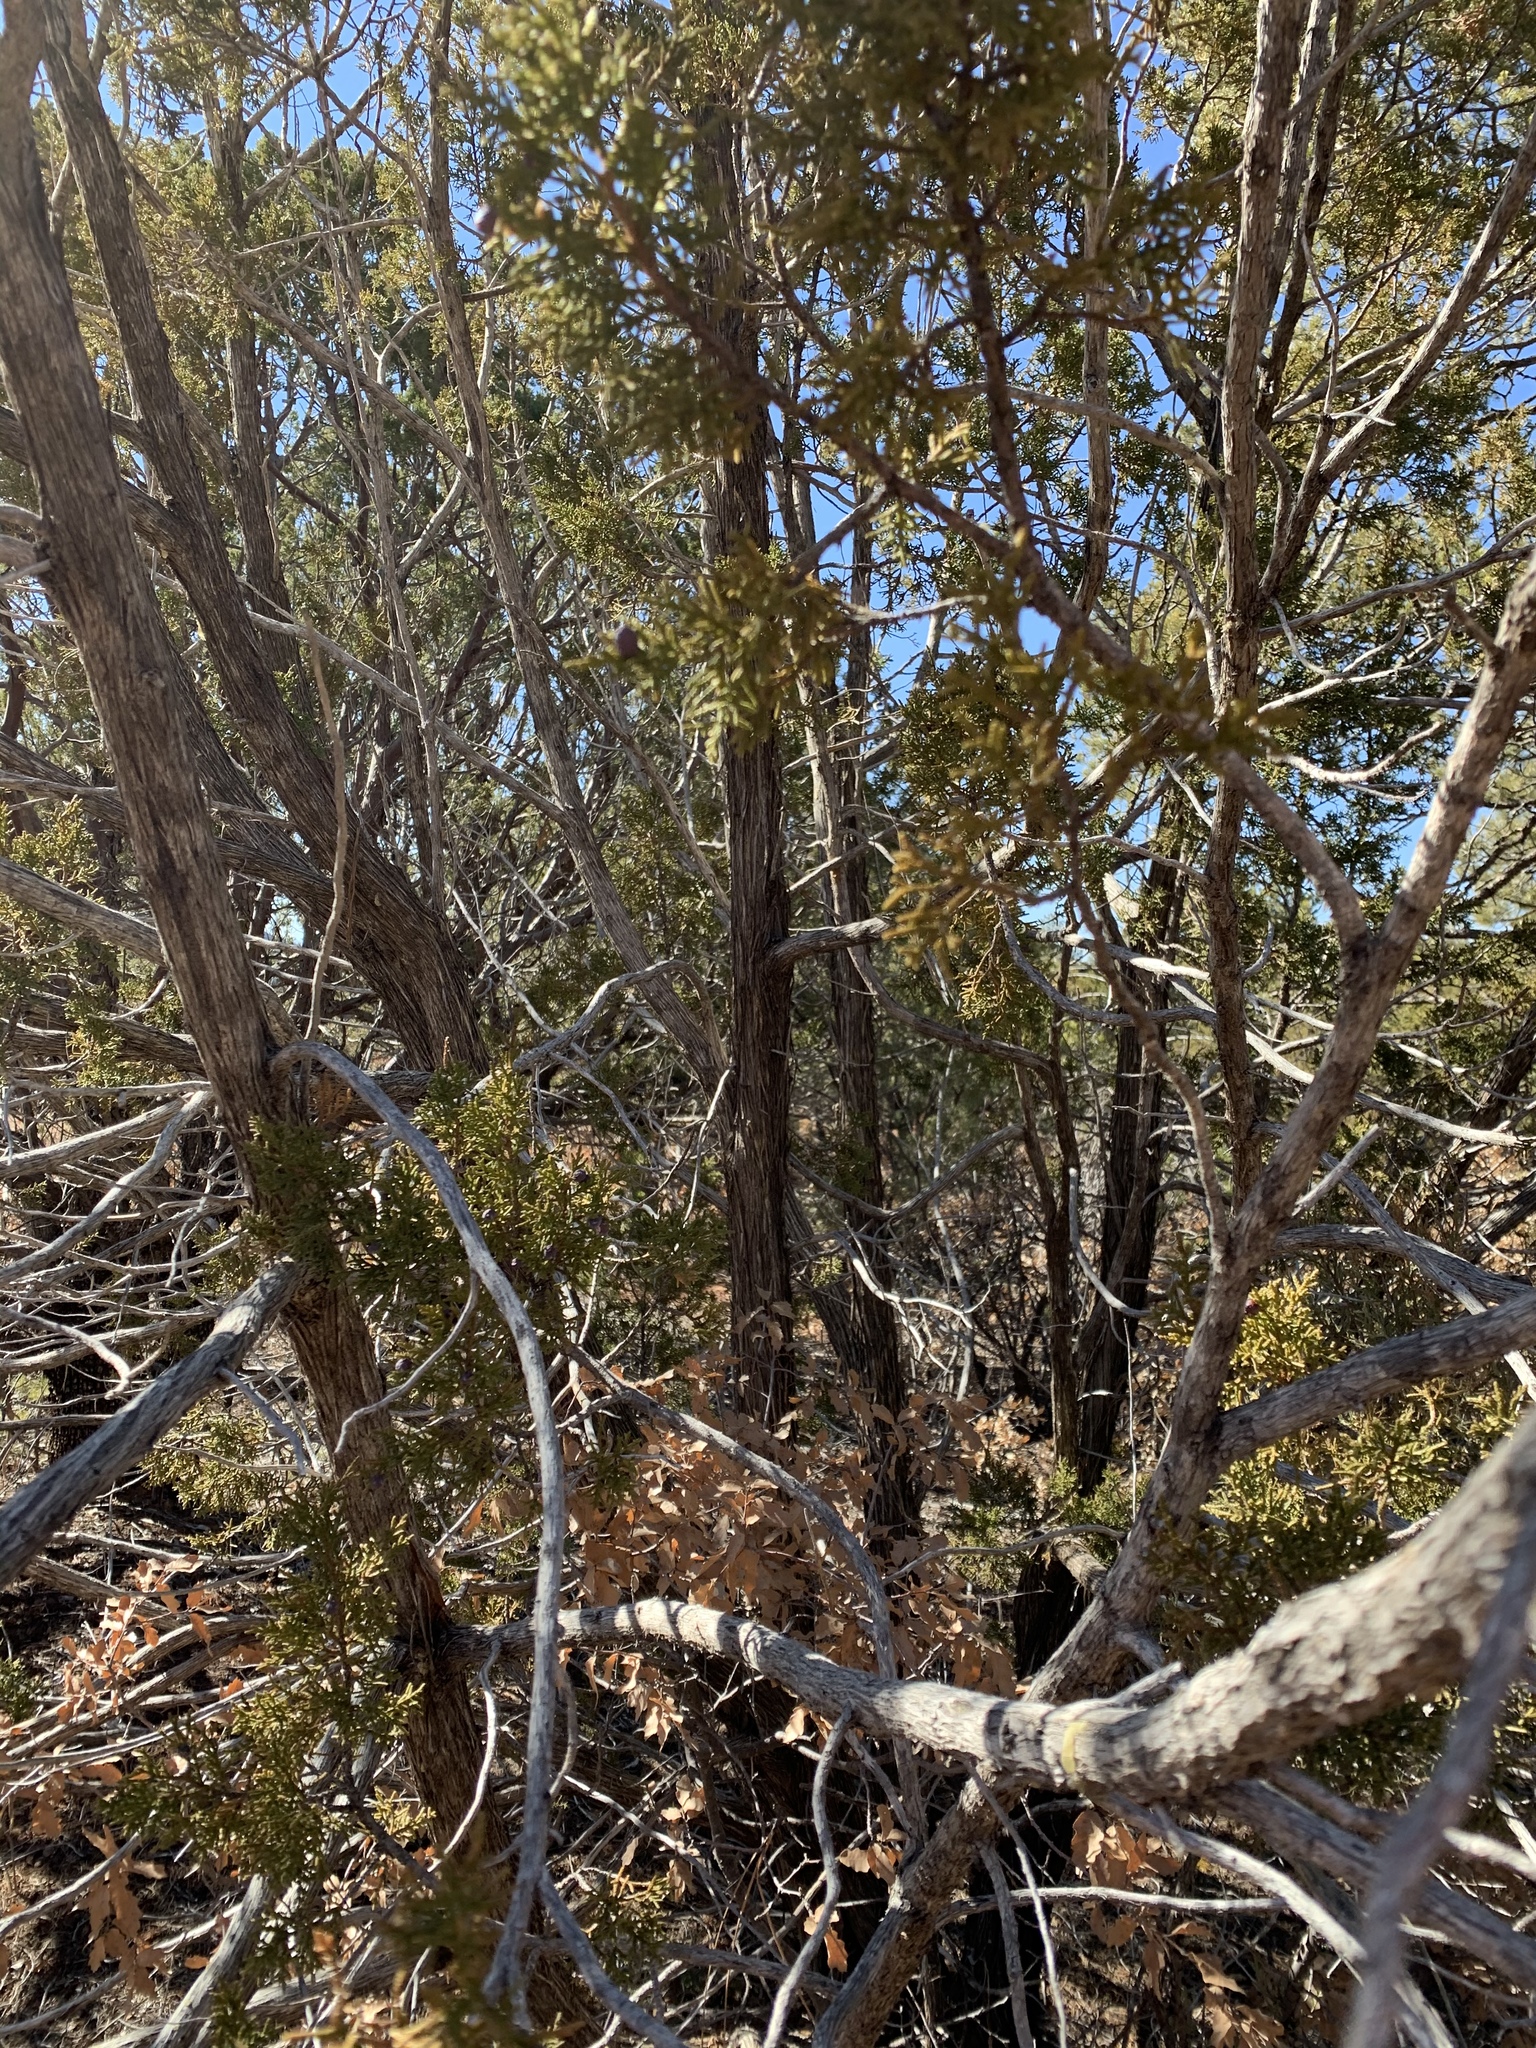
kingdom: Plantae
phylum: Tracheophyta
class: Pinopsida
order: Pinales
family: Cupressaceae
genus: Juniperus
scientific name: Juniperus monosperma
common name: One-seed juniper
